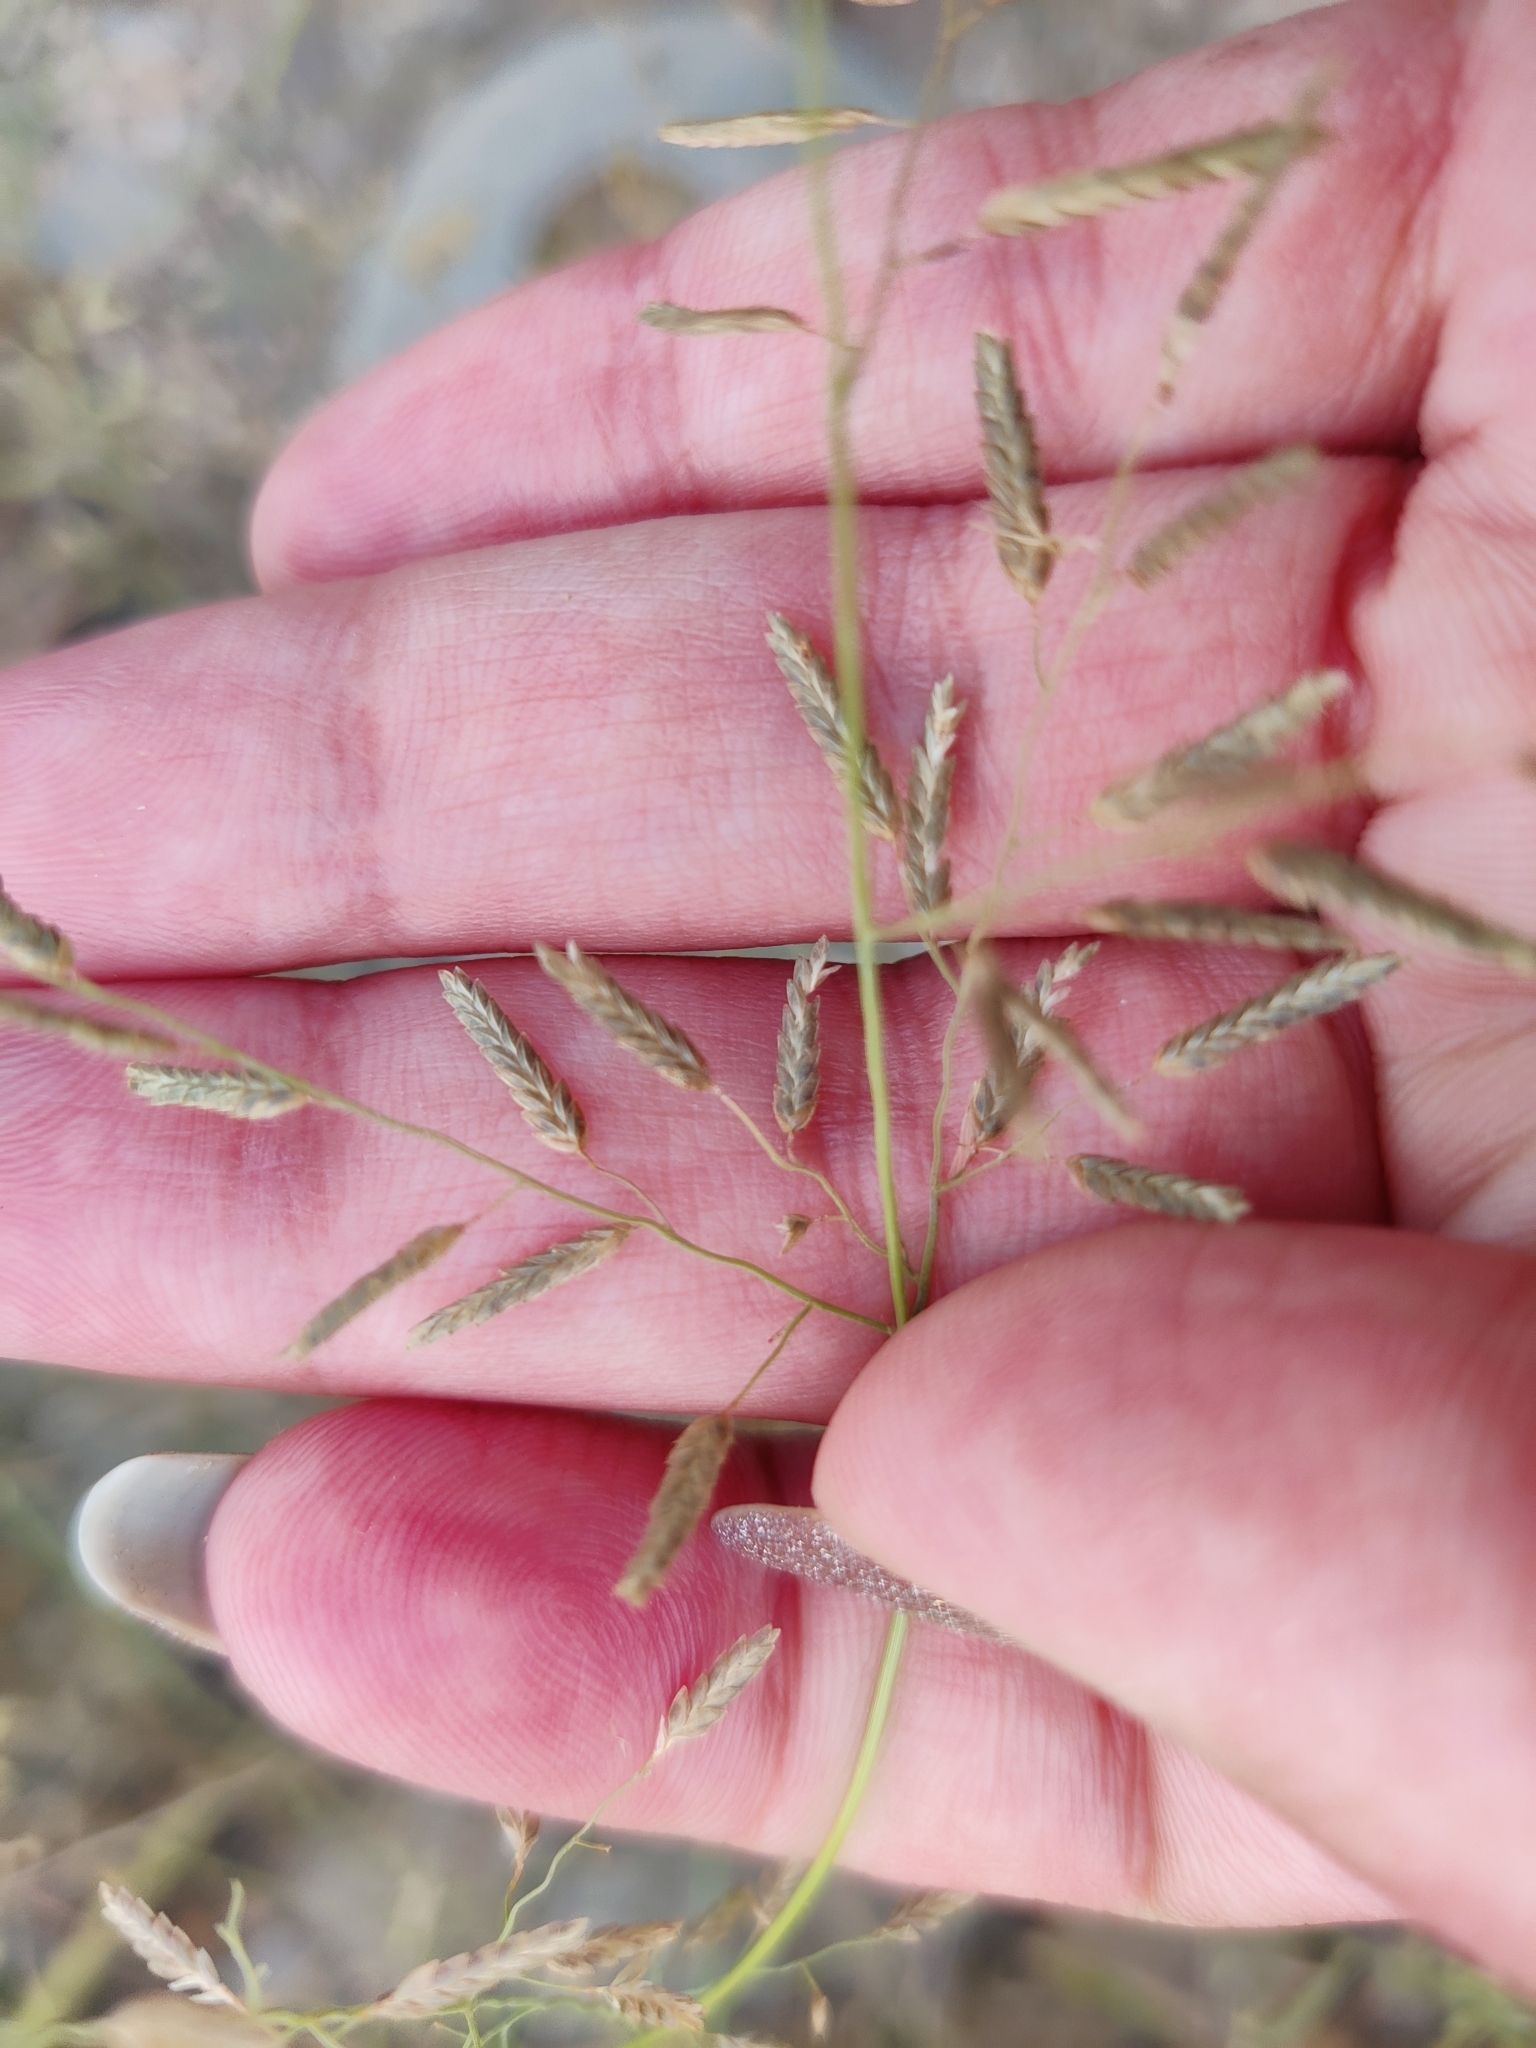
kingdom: Plantae
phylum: Tracheophyta
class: Liliopsida
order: Poales
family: Poaceae
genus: Eragrostis
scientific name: Eragrostis minor
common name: Small love-grass
